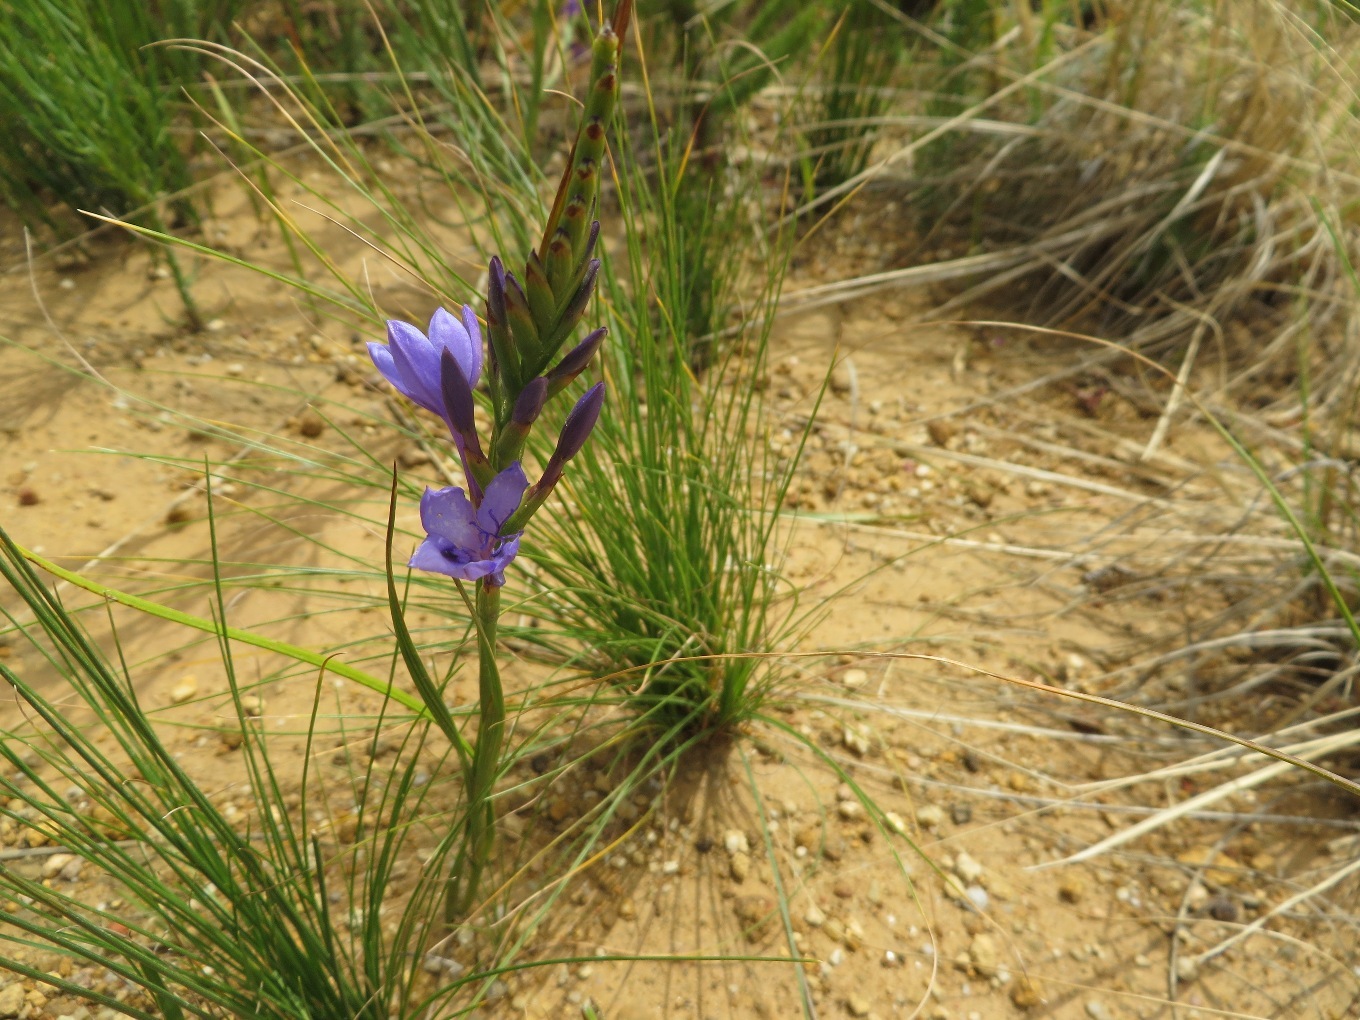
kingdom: Plantae
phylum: Tracheophyta
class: Liliopsida
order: Asparagales
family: Iridaceae
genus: Thereianthus
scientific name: Thereianthus spicatus
